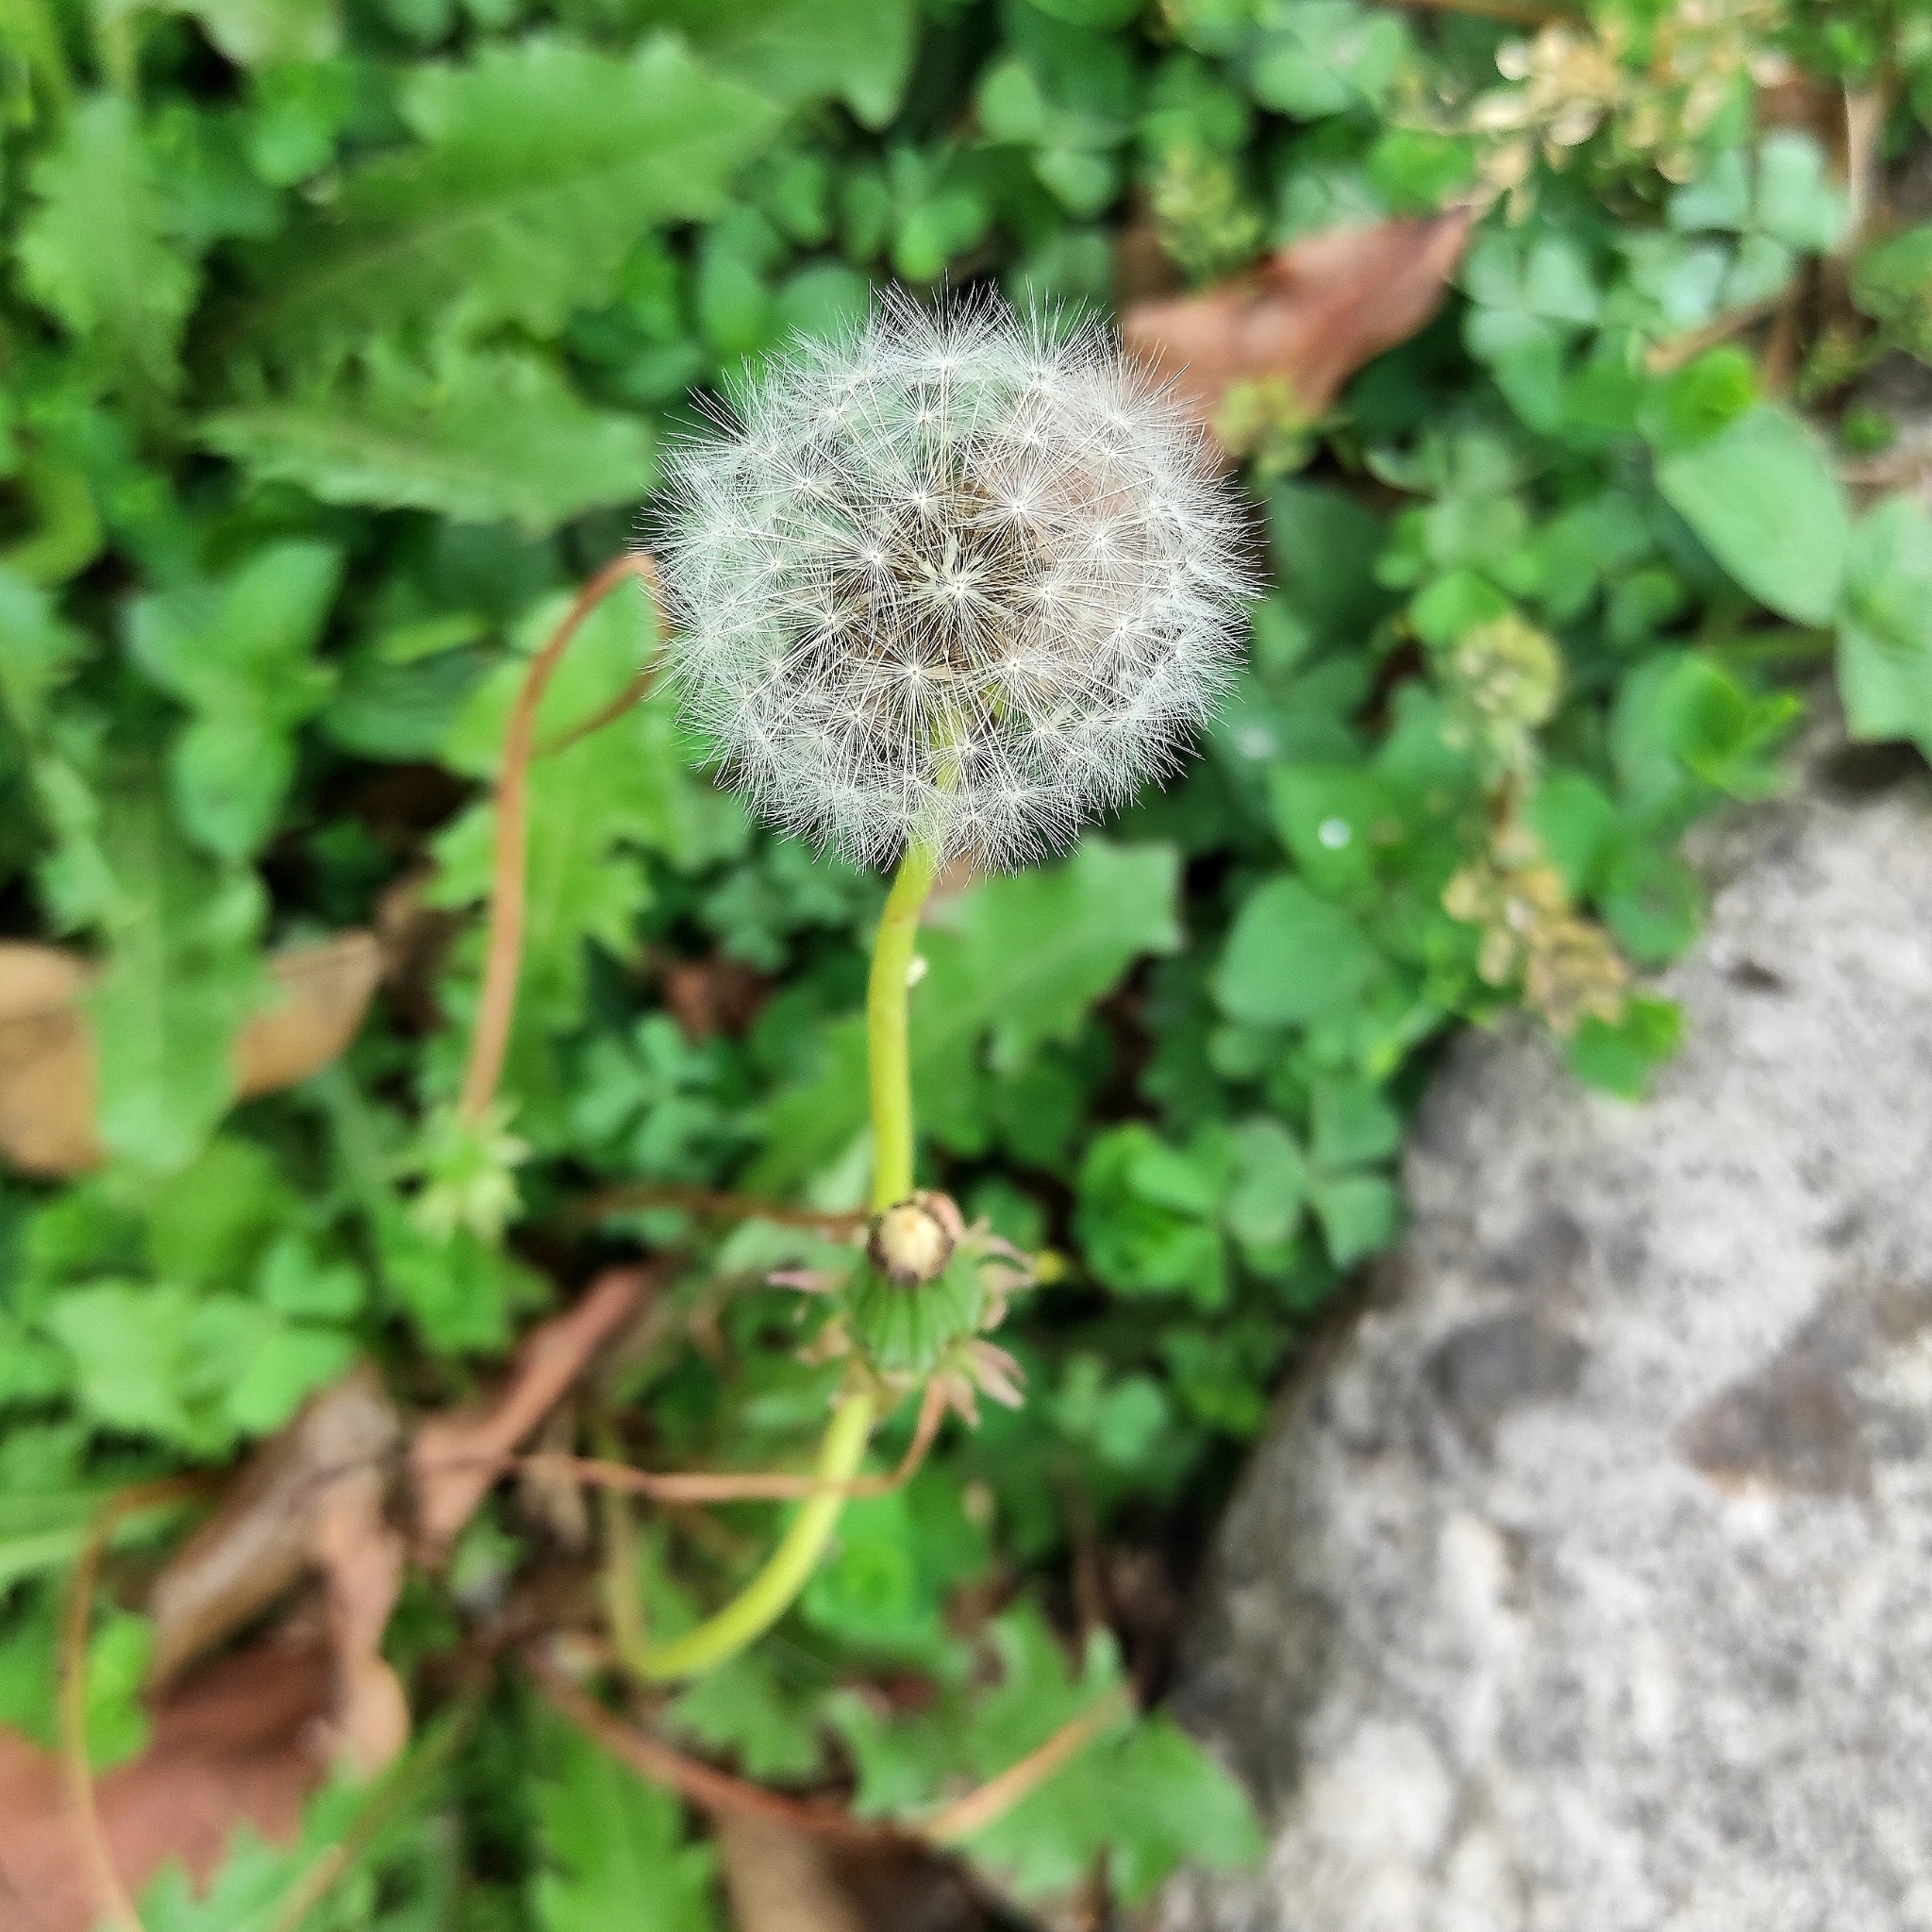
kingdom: Plantae
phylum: Tracheophyta
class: Magnoliopsida
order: Asterales
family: Asteraceae
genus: Taraxacum
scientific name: Taraxacum officinale
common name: Common dandelion
